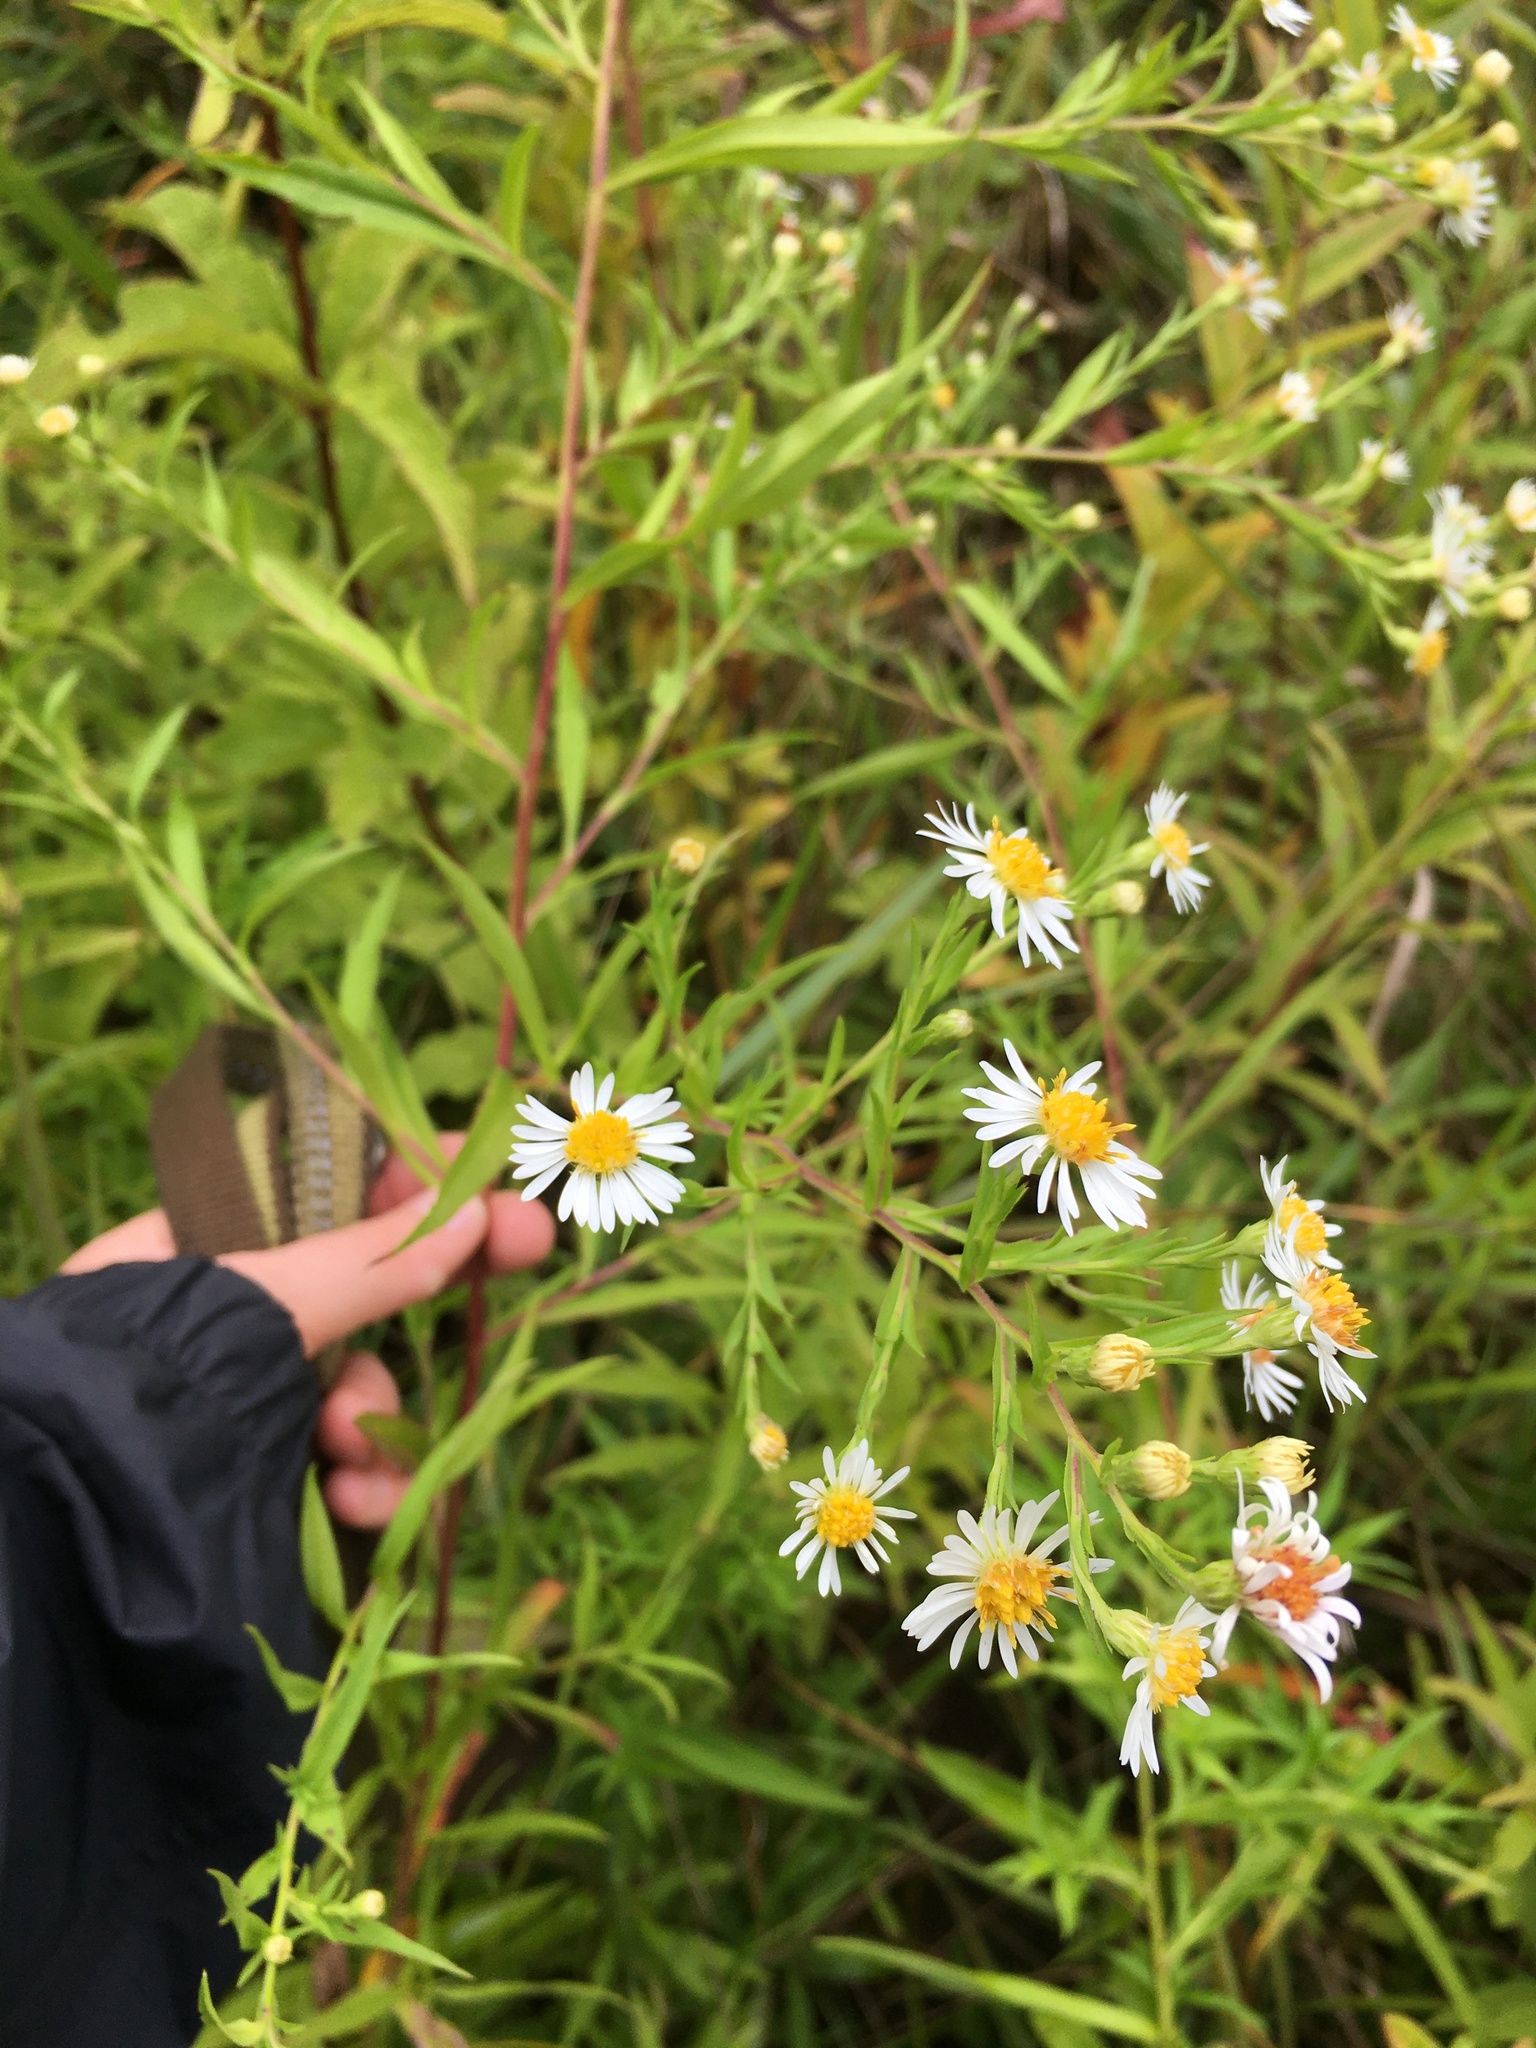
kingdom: Plantae
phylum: Tracheophyta
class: Magnoliopsida
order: Asterales
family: Asteraceae
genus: Symphyotrichum
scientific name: Symphyotrichum lanceolatum
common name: Panicled aster
